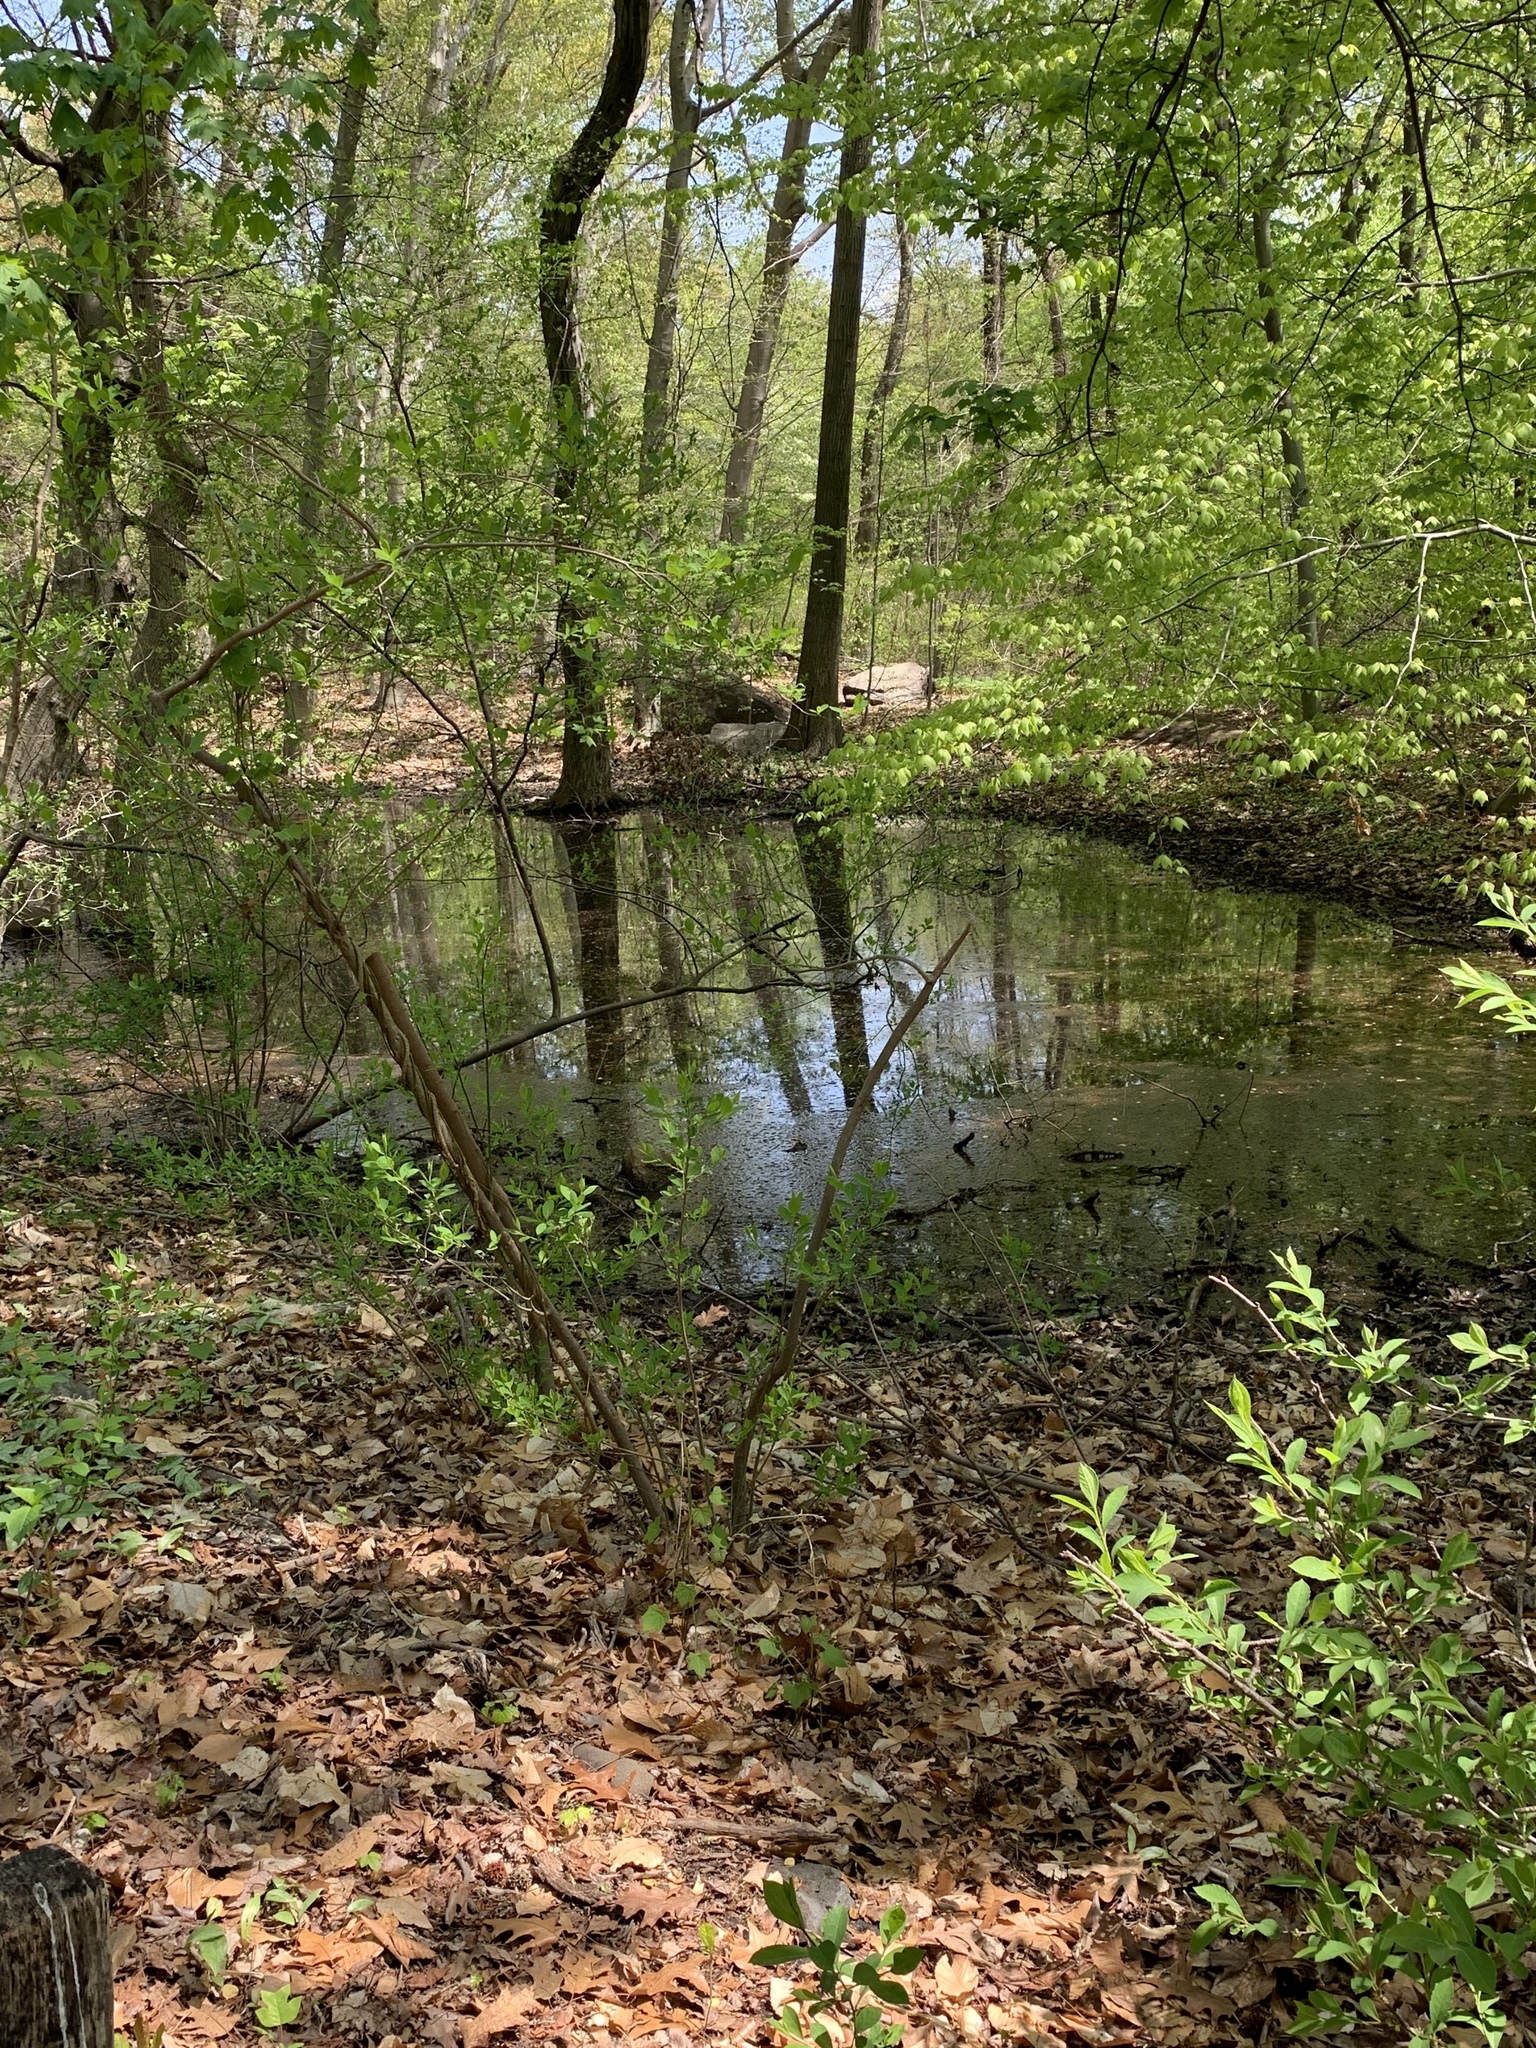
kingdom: Animalia
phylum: Chordata
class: Amphibia
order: Anura
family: Ranidae
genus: Lithobates
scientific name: Lithobates clamitans
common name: Green frog
